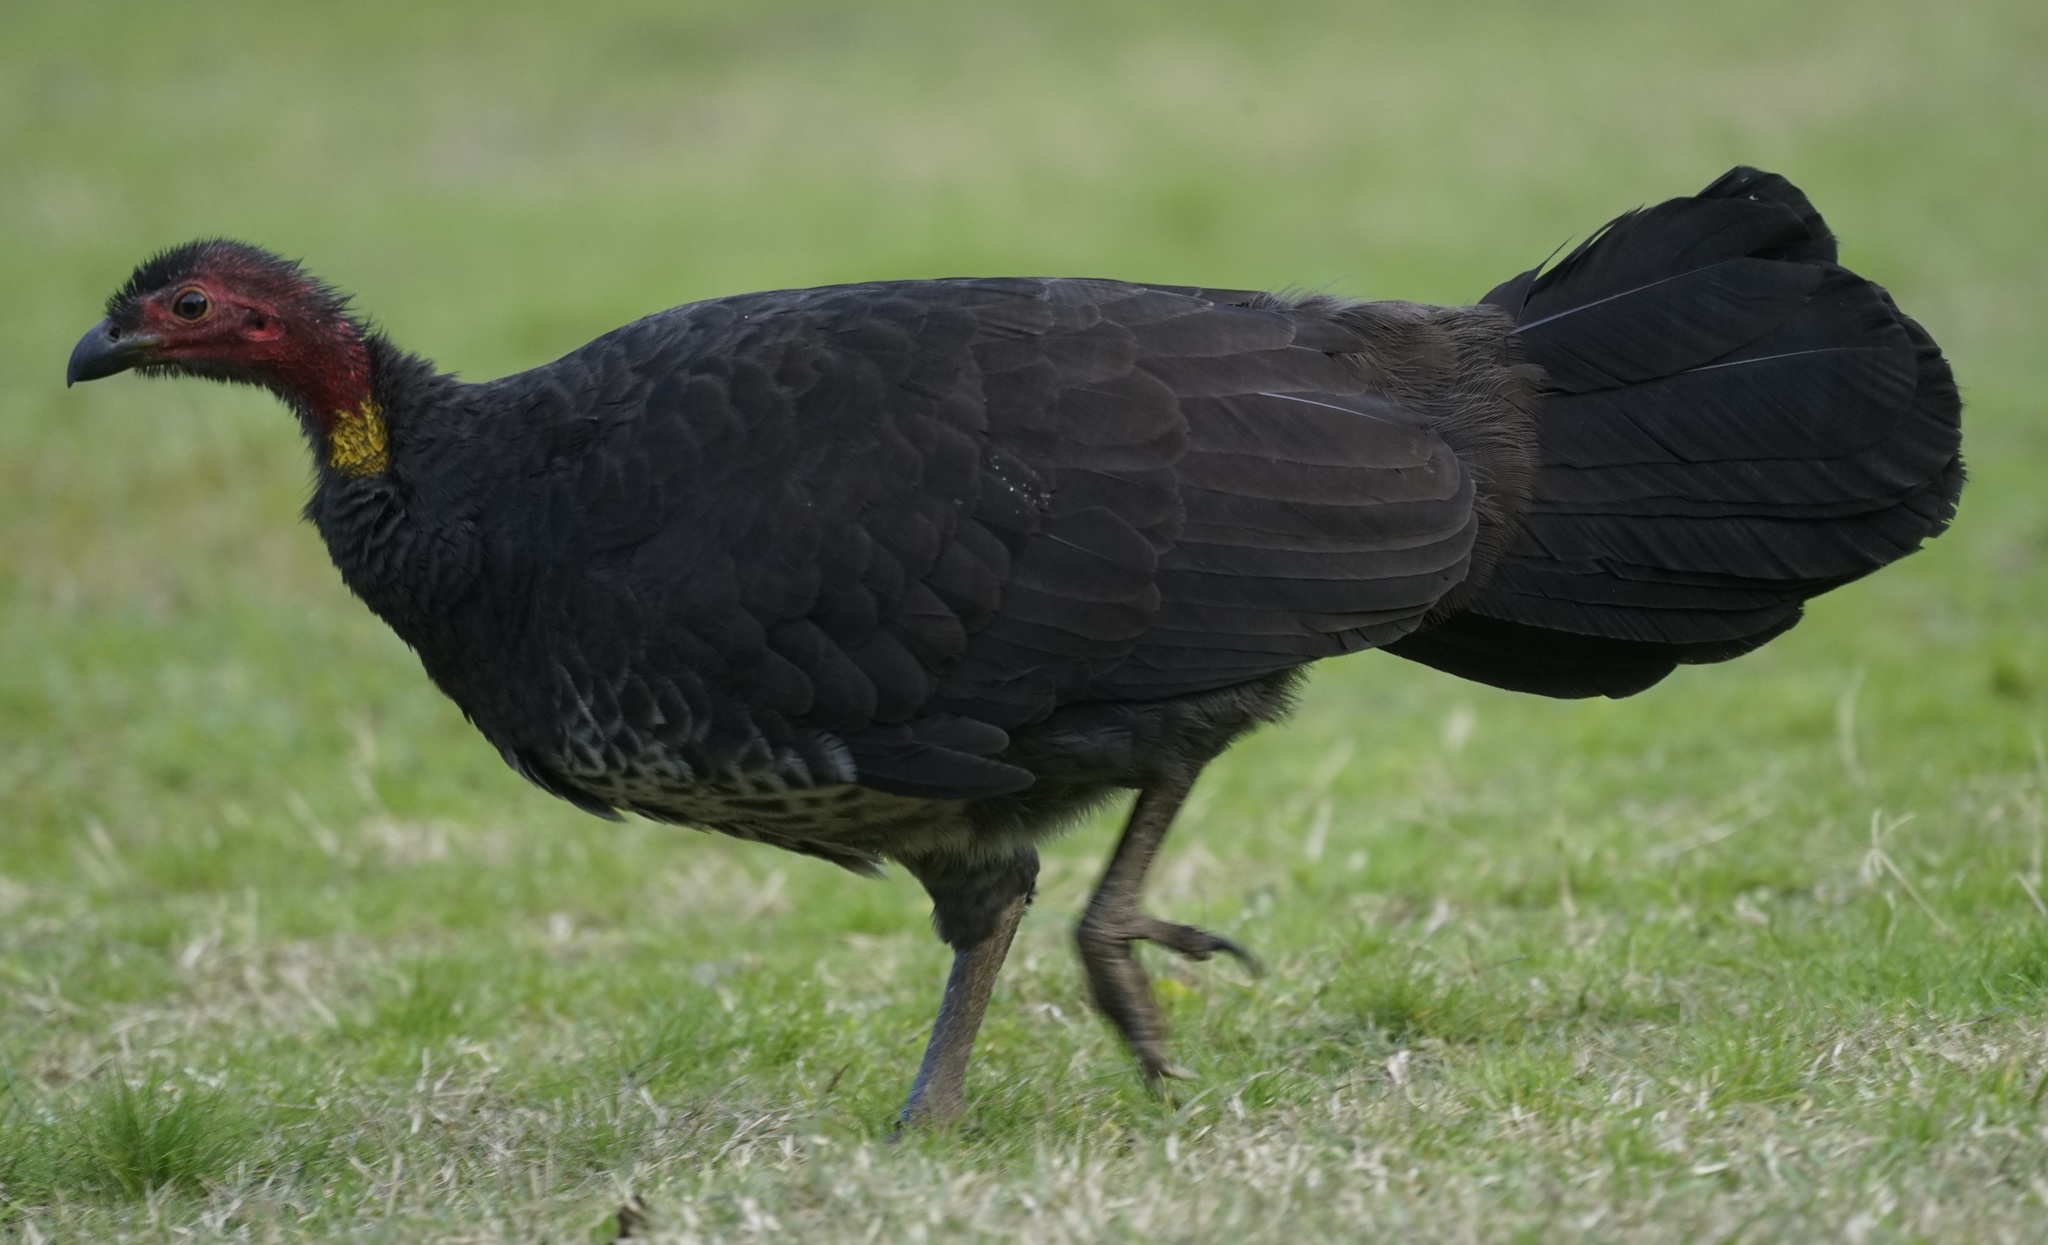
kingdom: Animalia
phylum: Chordata
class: Aves
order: Galliformes
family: Megapodiidae
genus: Alectura
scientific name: Alectura lathami
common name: Australian brushturkey
